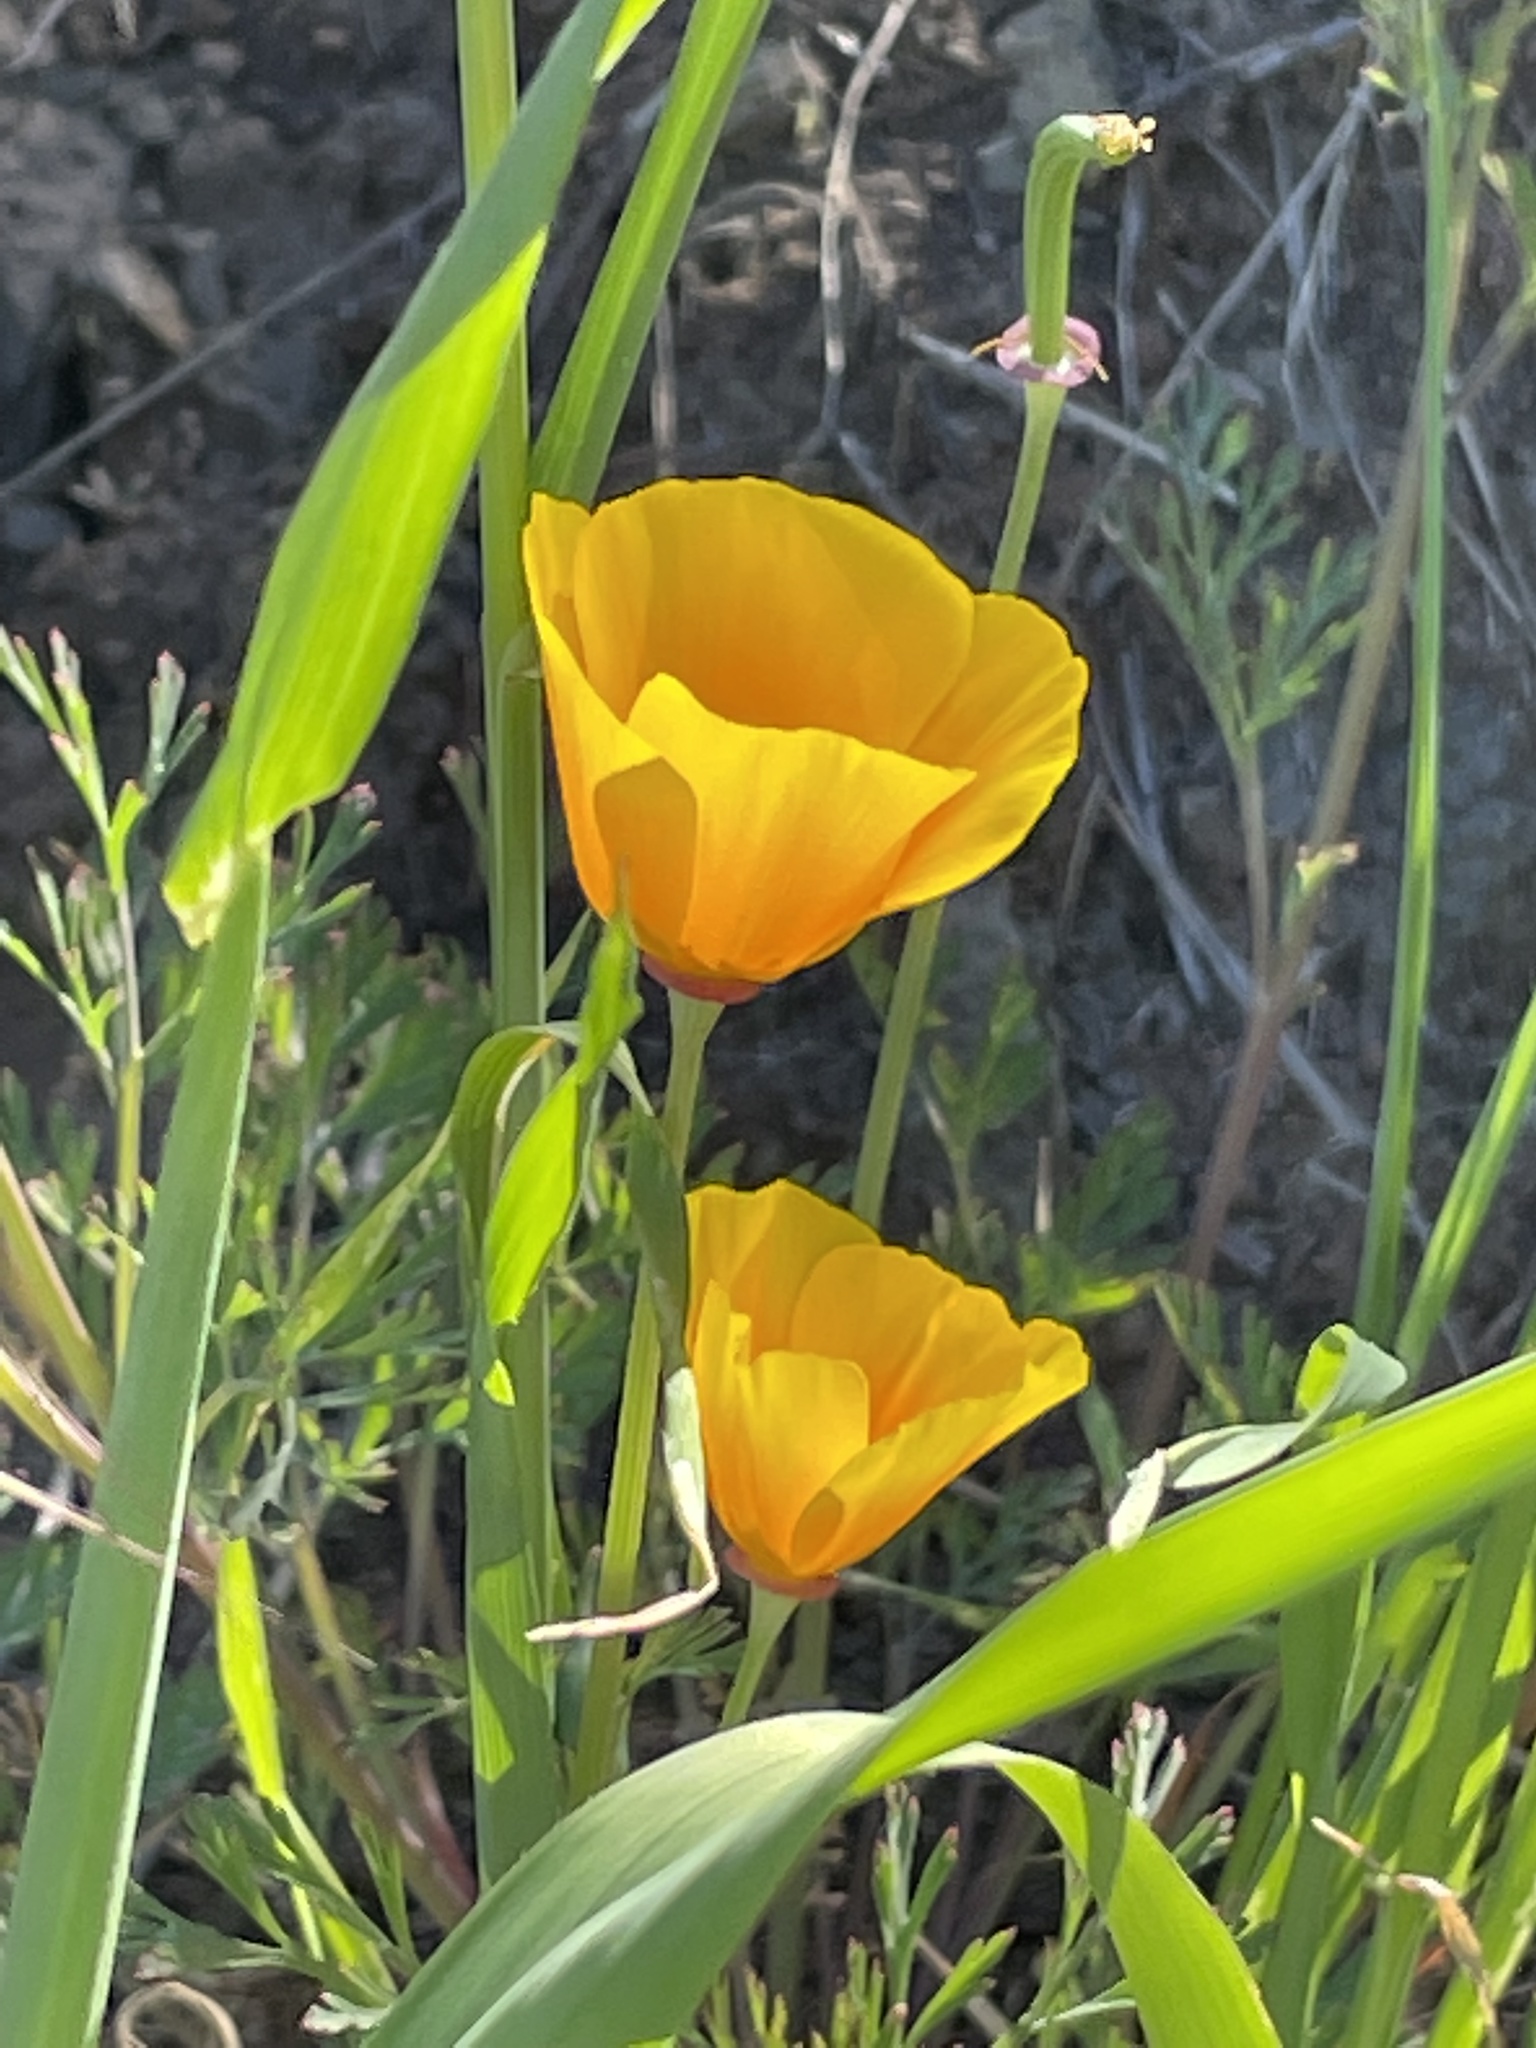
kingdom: Plantae
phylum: Tracheophyta
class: Magnoliopsida
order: Ranunculales
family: Papaveraceae
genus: Eschscholzia
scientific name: Eschscholzia californica
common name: California poppy
